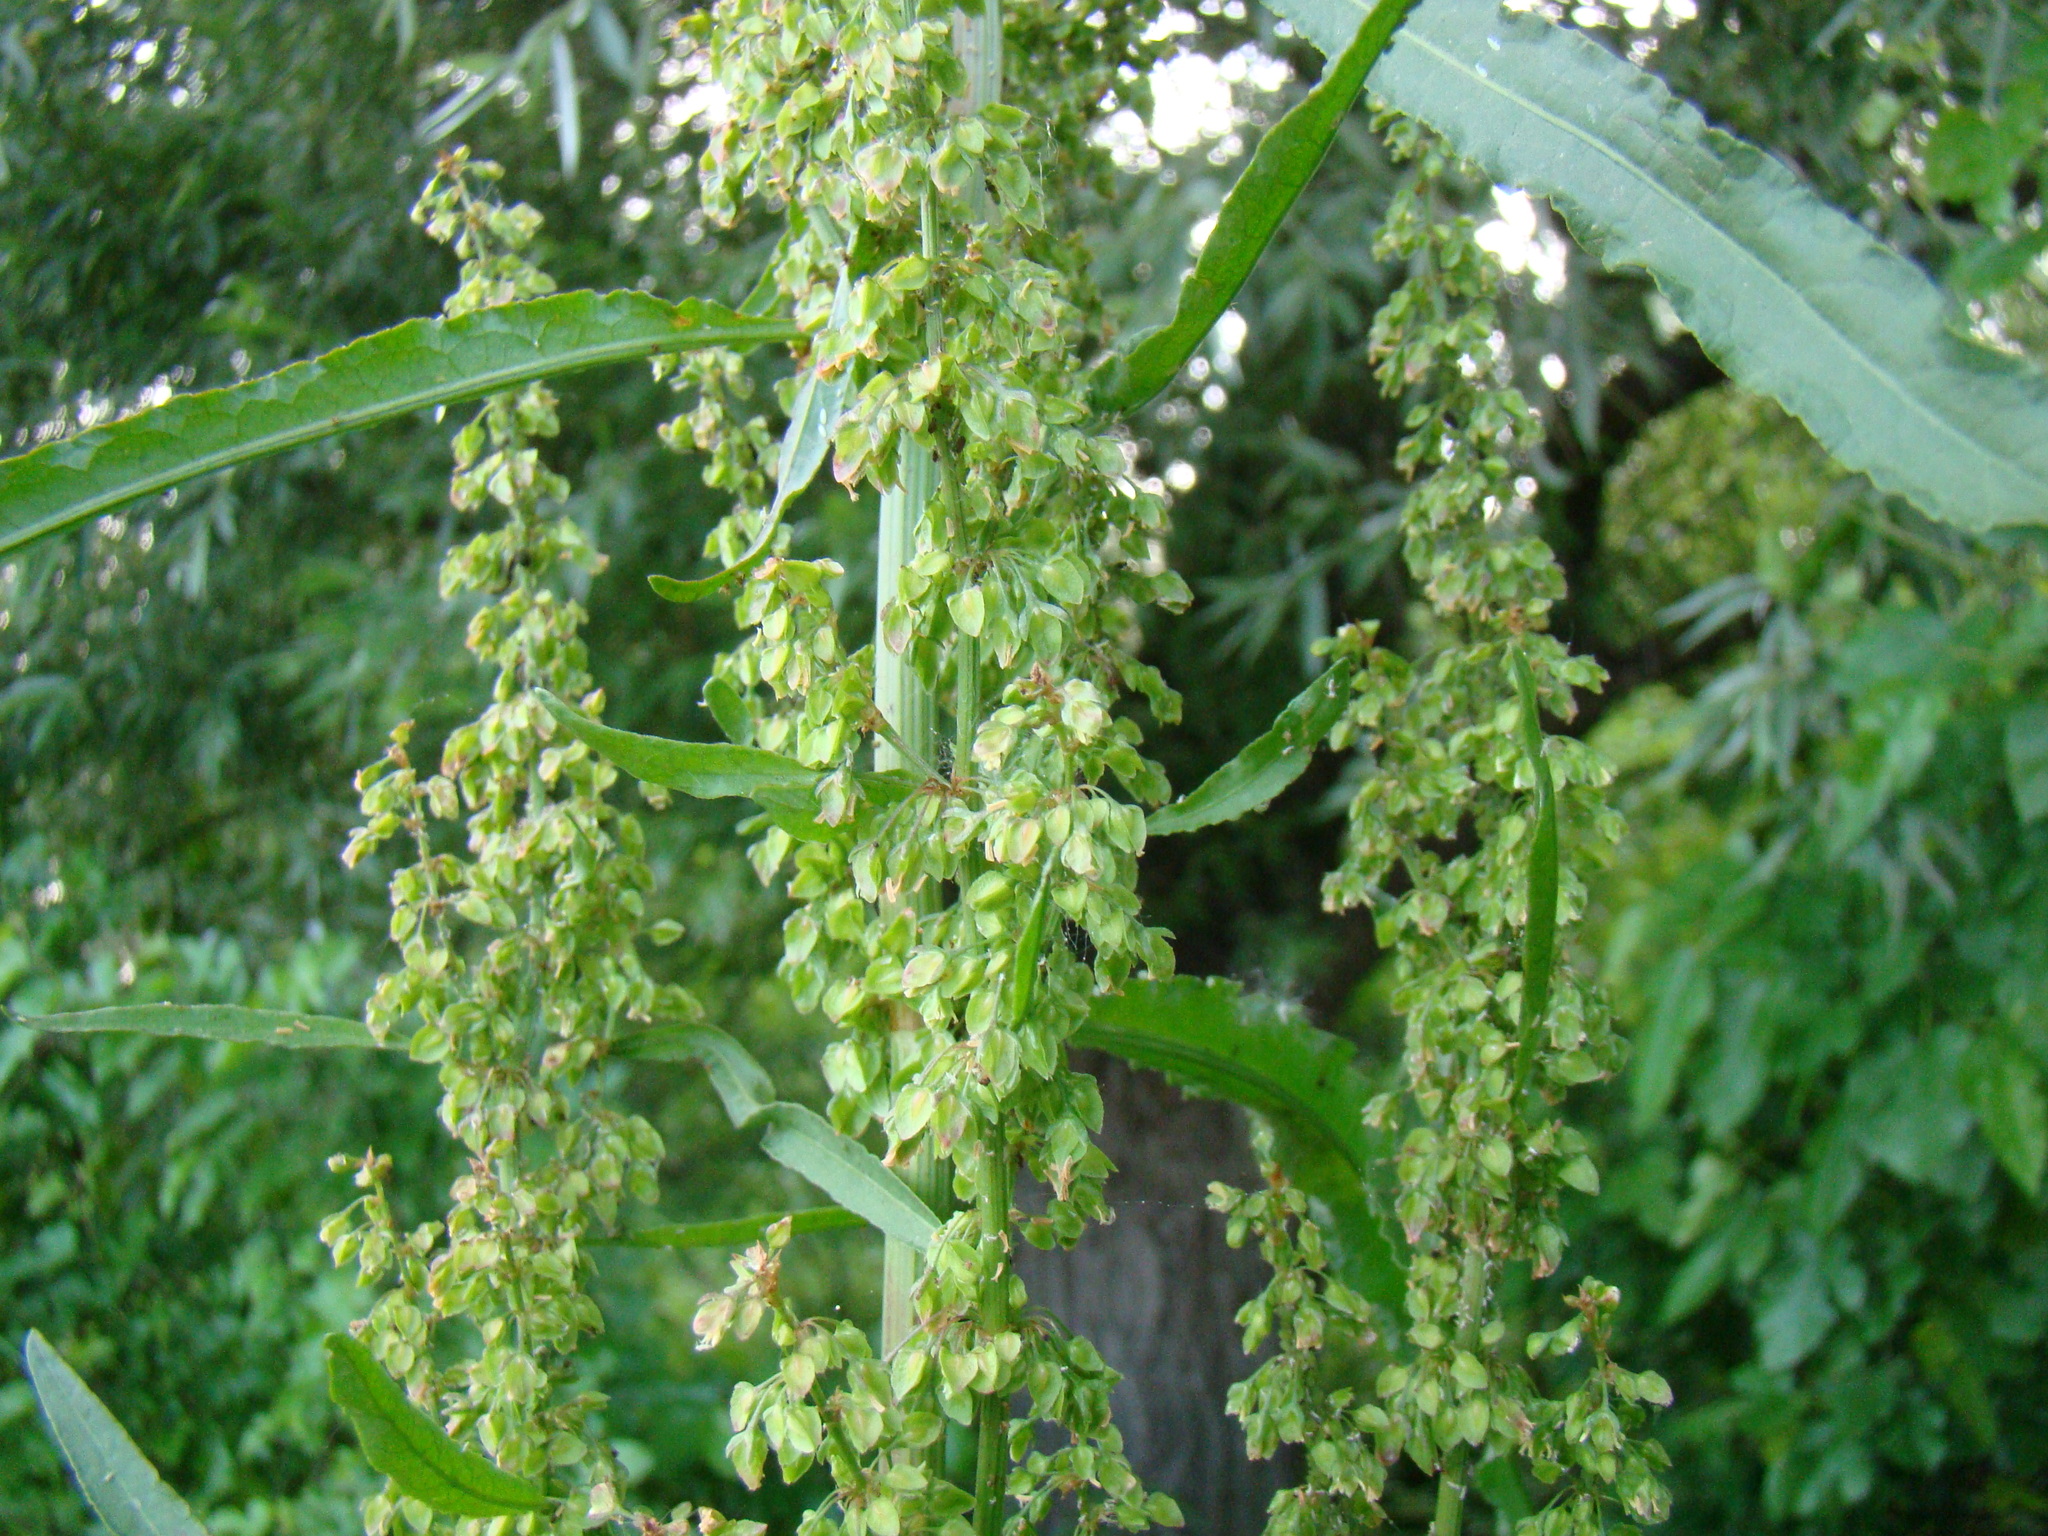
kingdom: Plantae
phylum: Tracheophyta
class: Magnoliopsida
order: Caryophyllales
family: Polygonaceae
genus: Rumex
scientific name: Rumex crispus
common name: Curled dock
